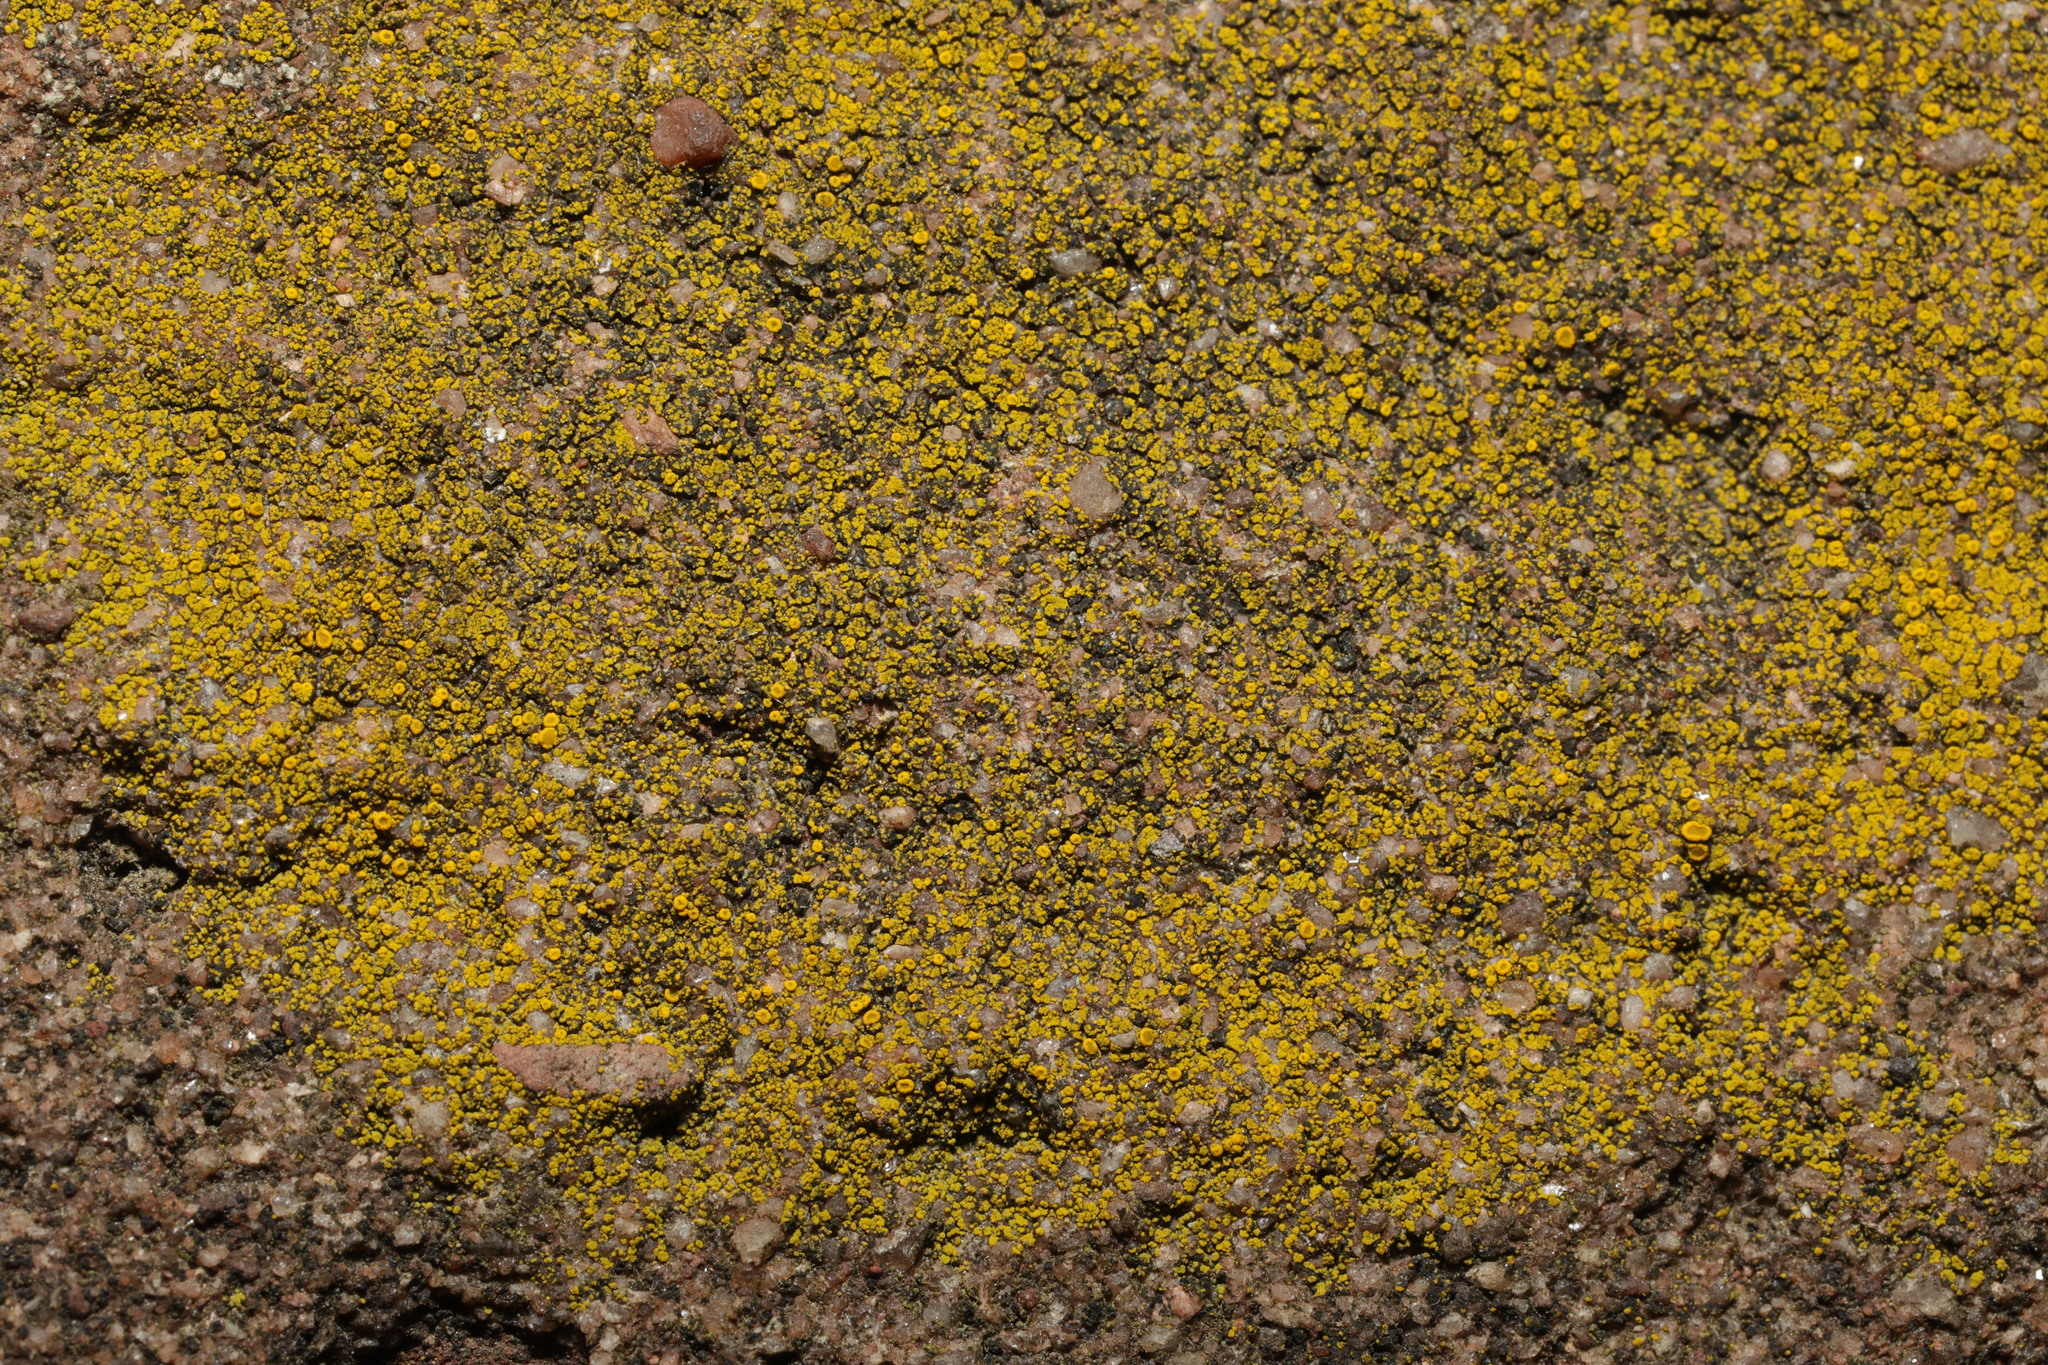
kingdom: Fungi
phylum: Ascomycota
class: Candelariomycetes
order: Candelariales
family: Candelariaceae
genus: Candelariella
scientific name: Candelariella vitellina
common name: Common goldspeck
